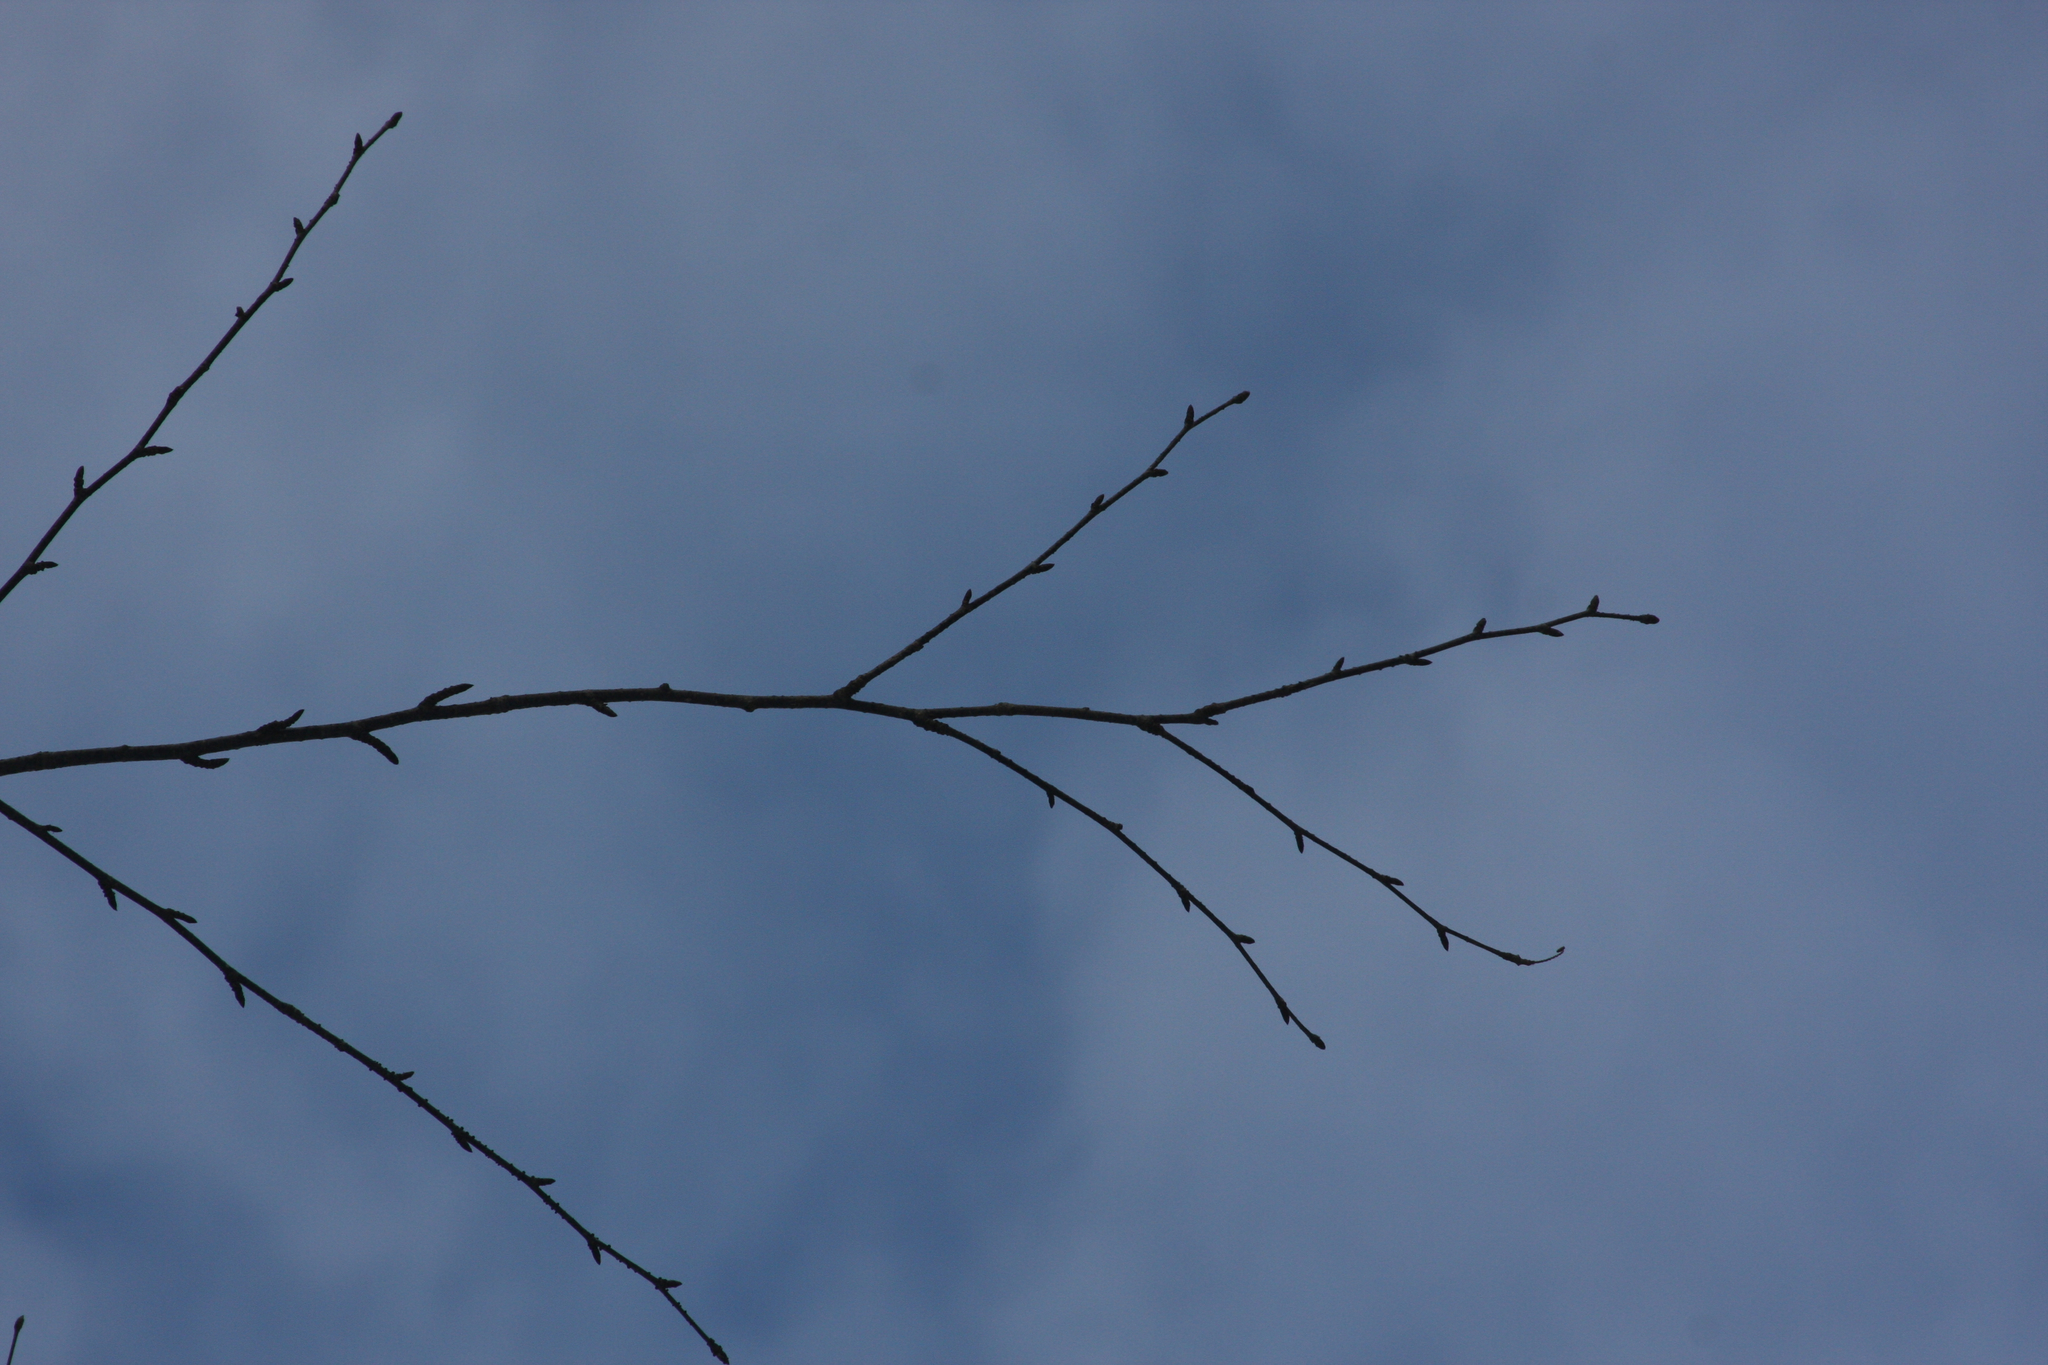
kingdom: Plantae
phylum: Tracheophyta
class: Magnoliopsida
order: Fagales
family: Betulaceae
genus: Betula
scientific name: Betula alleghaniensis
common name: Yellow birch
